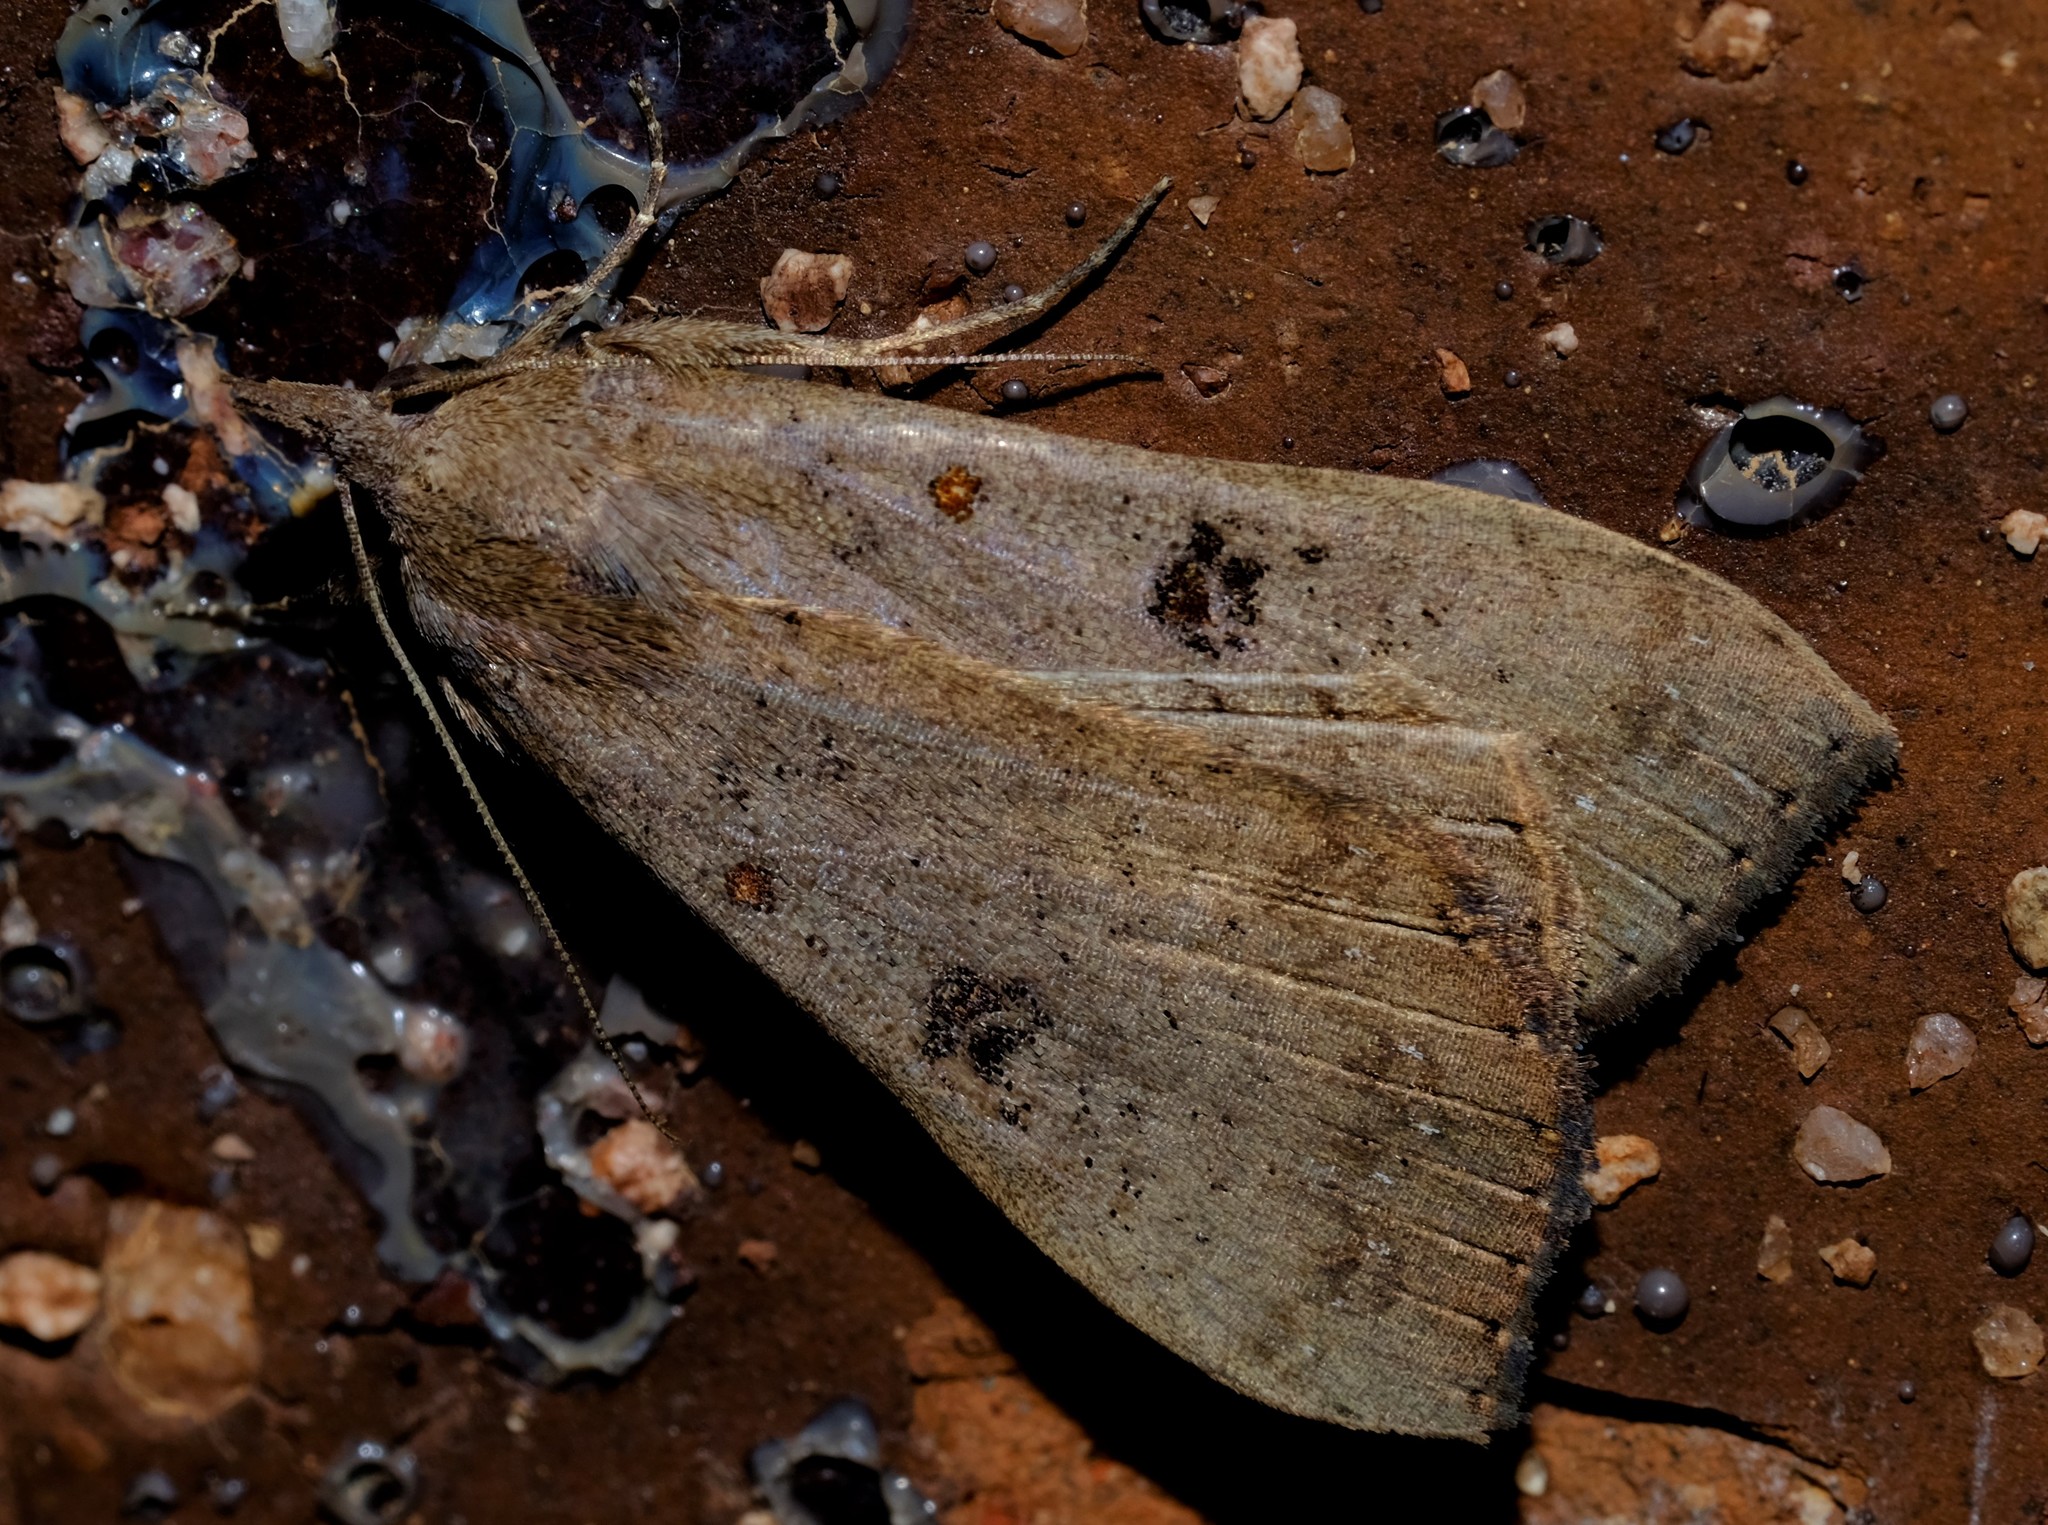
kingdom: Animalia
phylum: Arthropoda
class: Insecta
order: Lepidoptera
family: Erebidae
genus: Rhapsa
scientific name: Rhapsa suscitatalis
